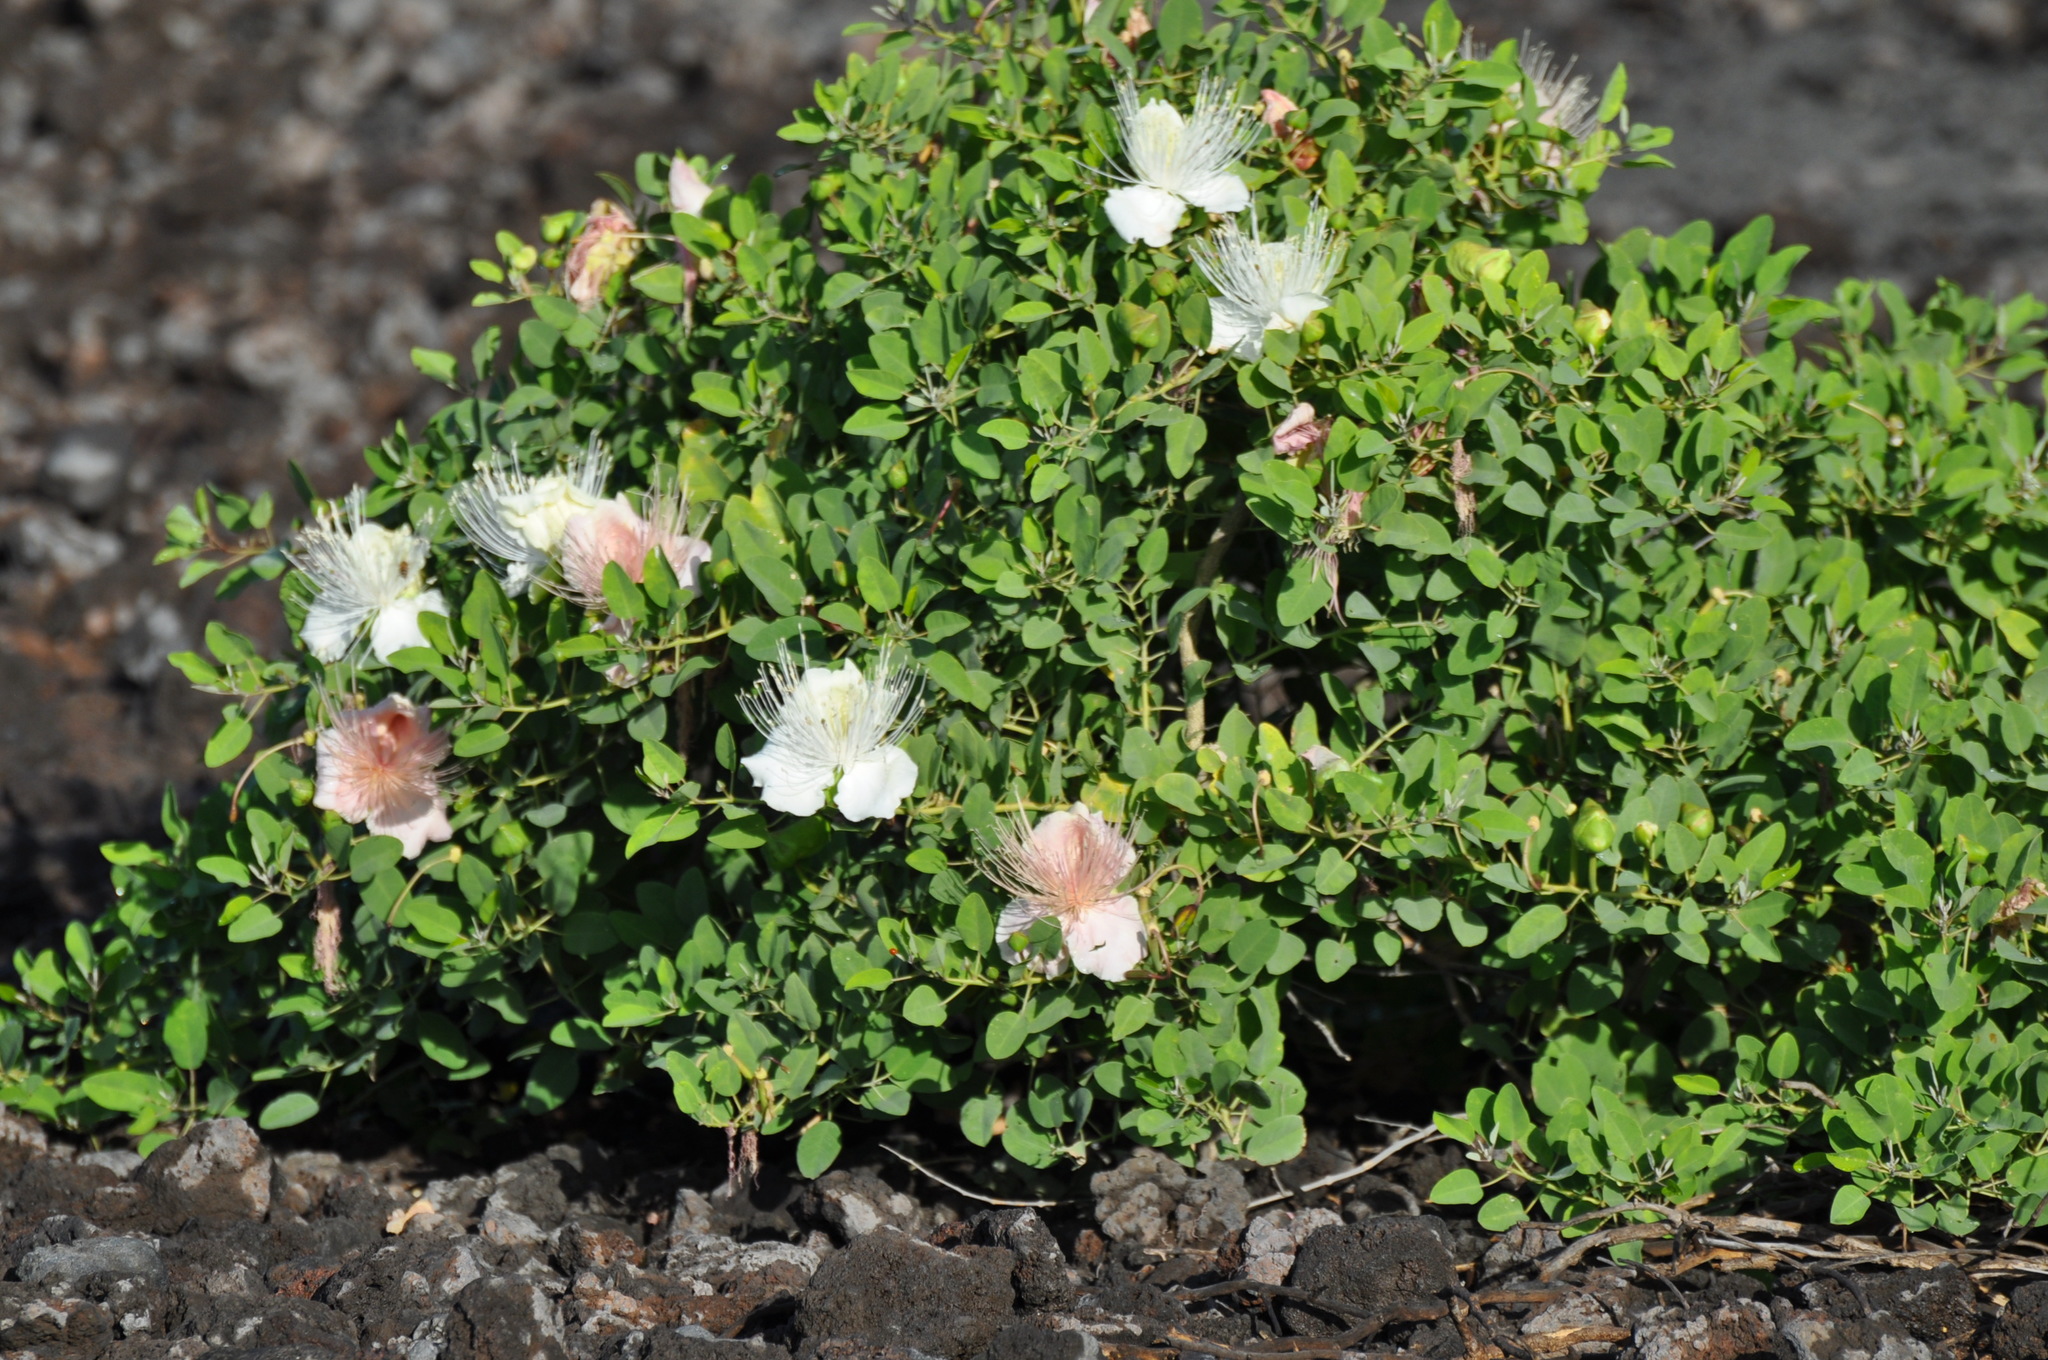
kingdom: Plantae
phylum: Tracheophyta
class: Magnoliopsida
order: Brassicales
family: Capparaceae
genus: Capparis
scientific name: Capparis spinosa
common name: Caper
